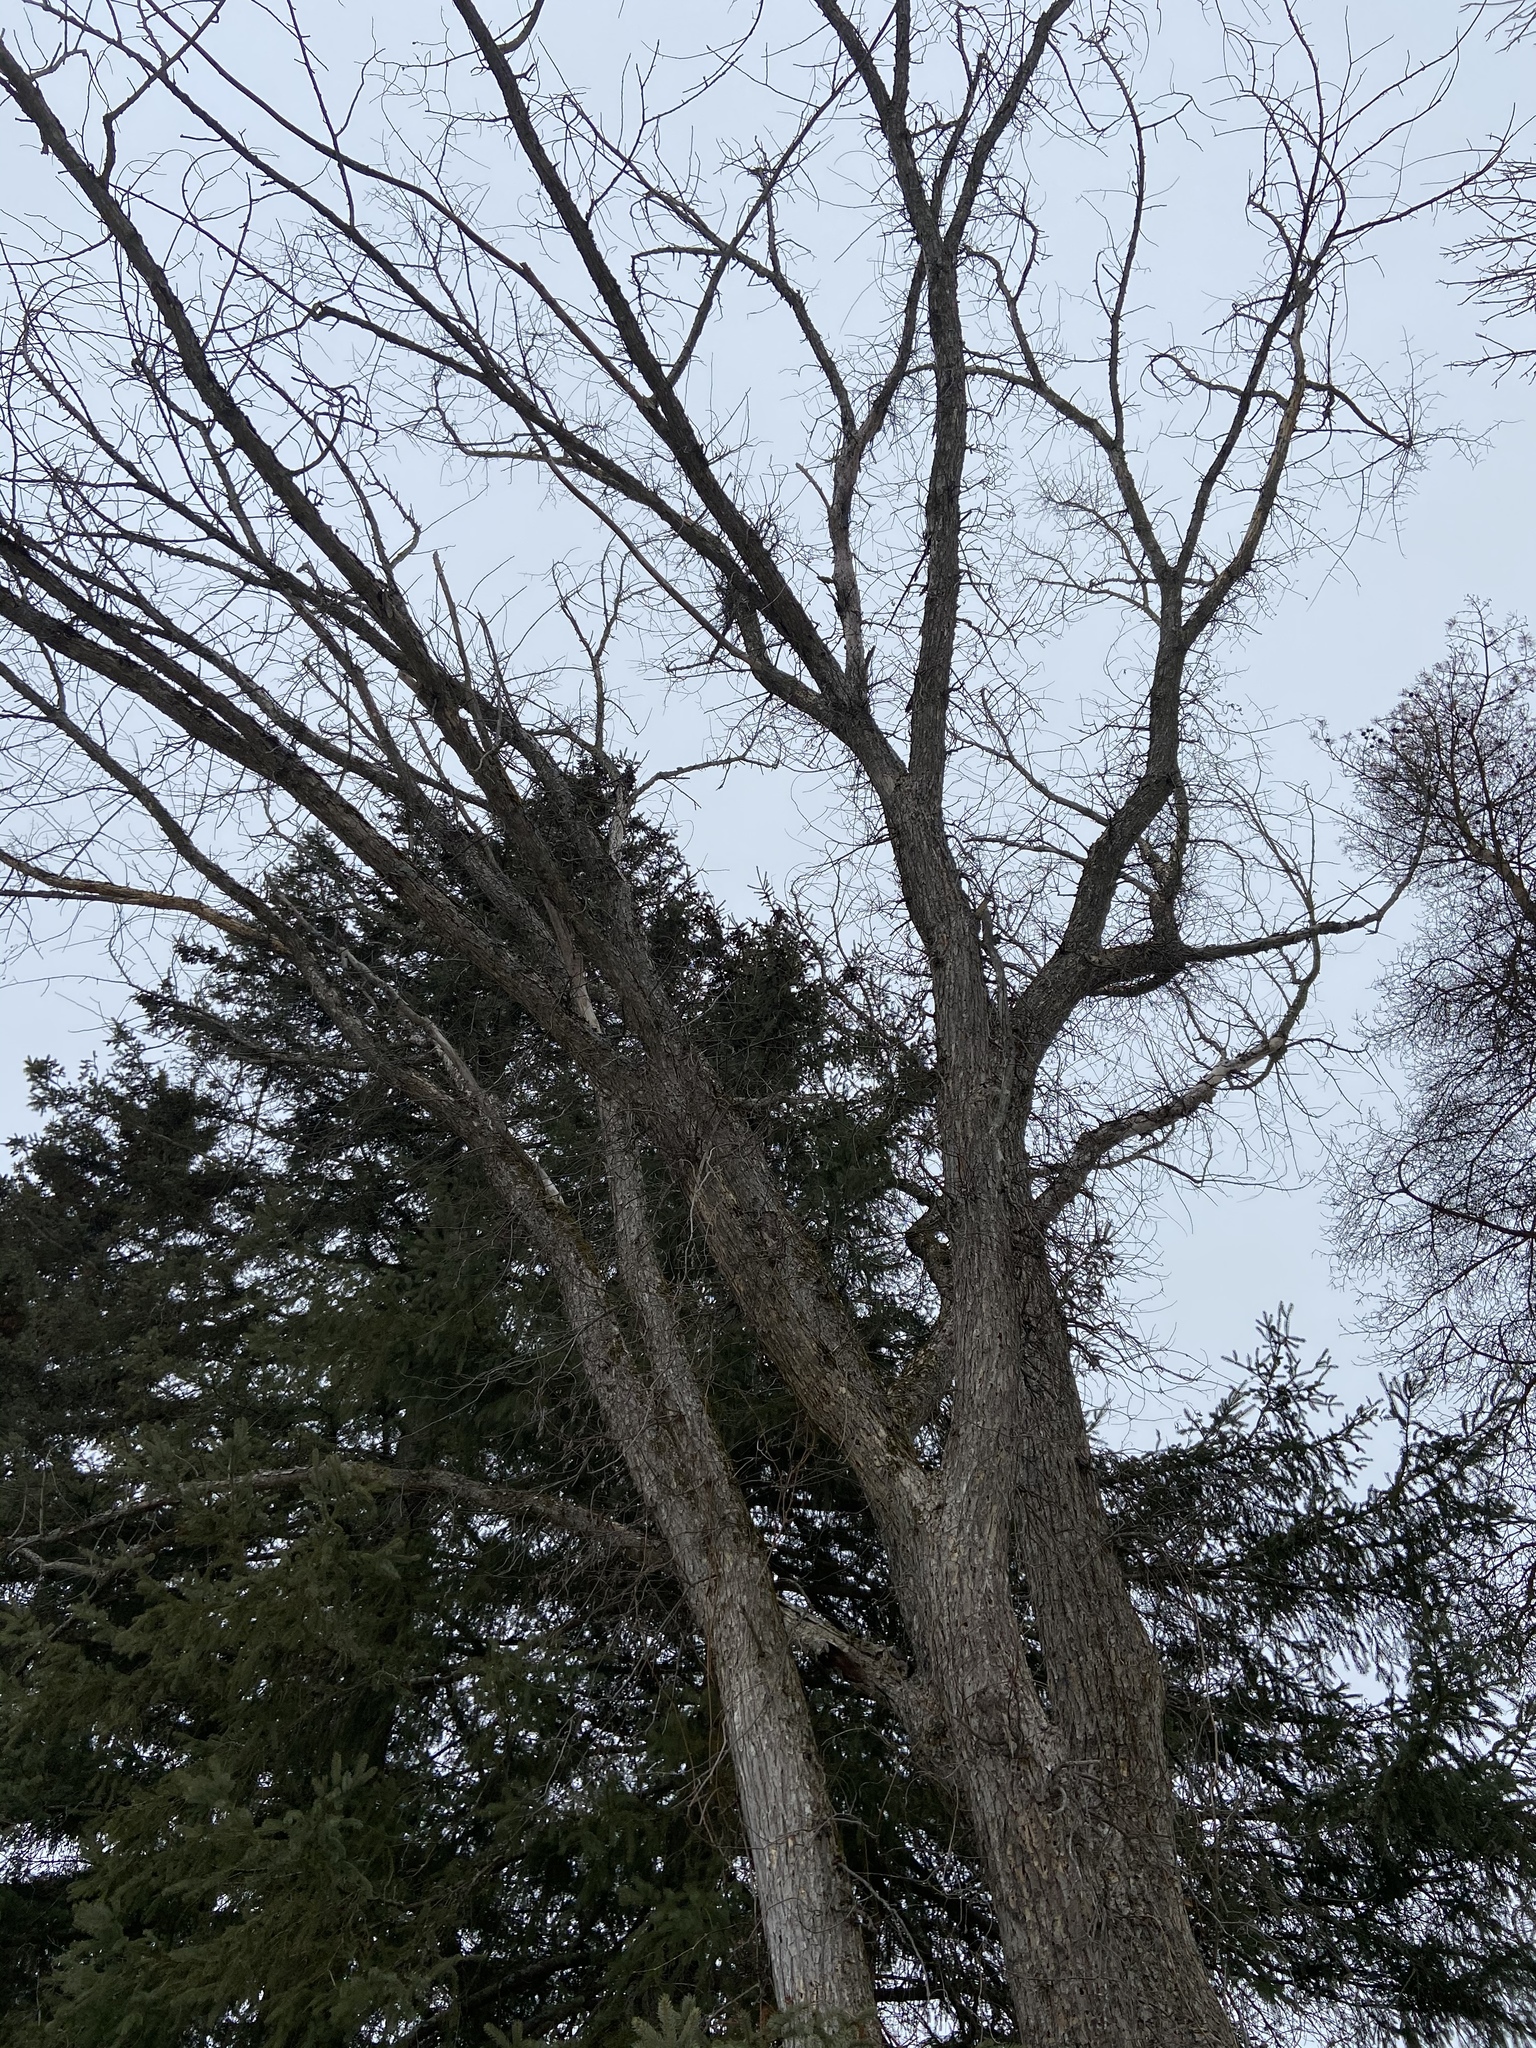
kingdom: Plantae
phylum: Tracheophyta
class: Magnoliopsida
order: Malvales
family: Malvaceae
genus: Tilia
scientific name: Tilia americana
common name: Basswood
